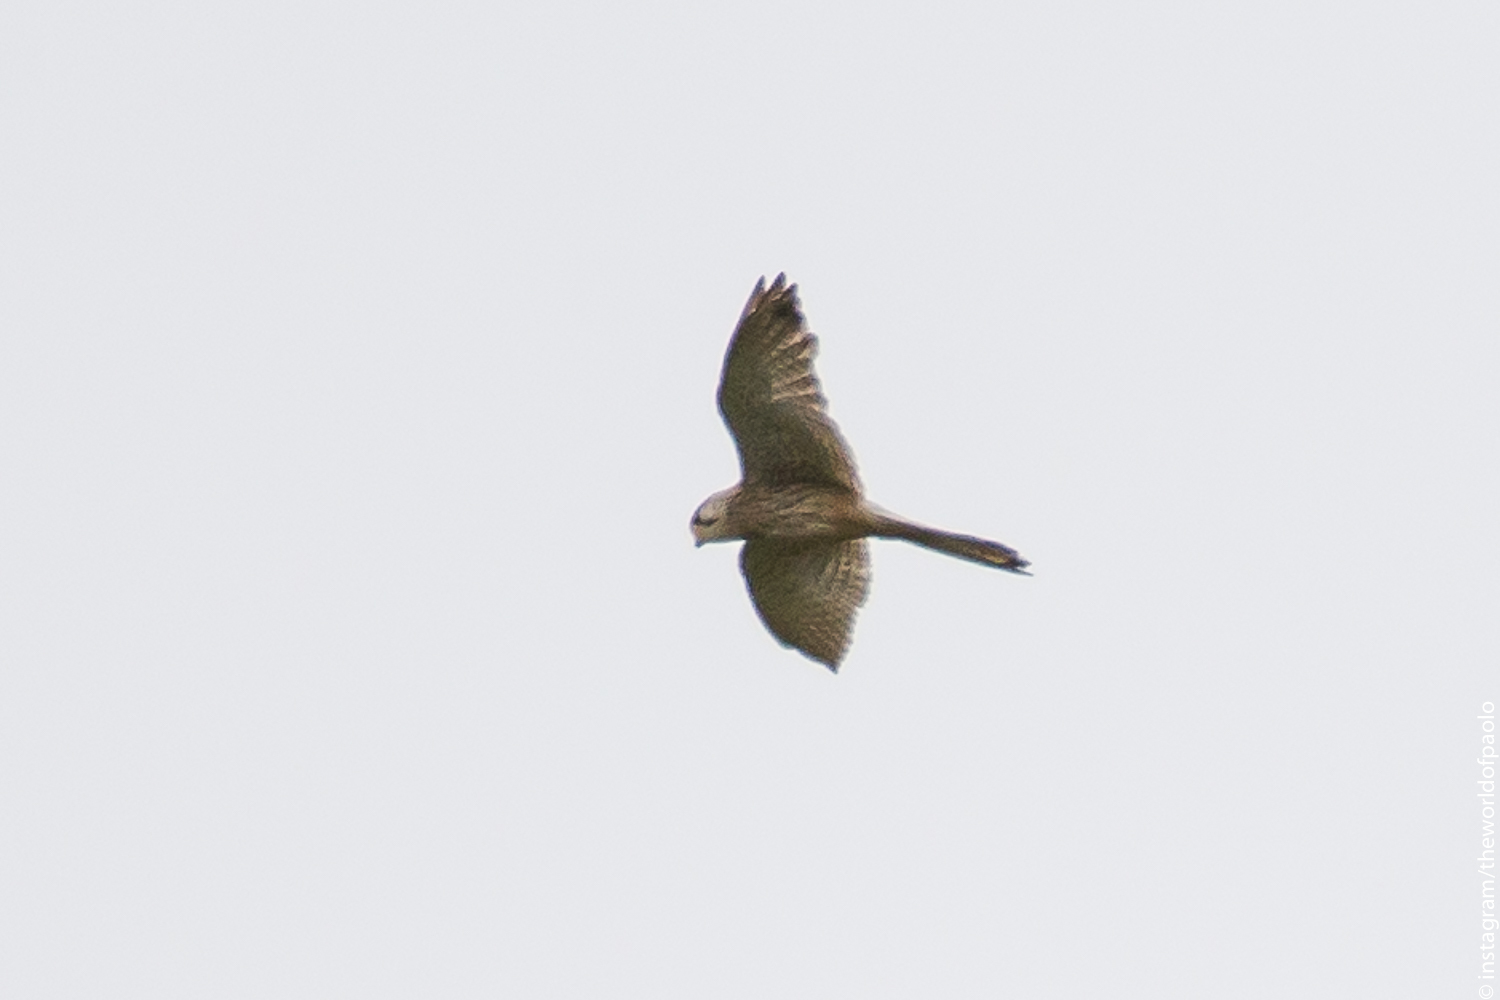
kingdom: Animalia
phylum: Chordata
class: Aves
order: Falconiformes
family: Falconidae
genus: Falco
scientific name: Falco tinnunculus
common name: Common kestrel
